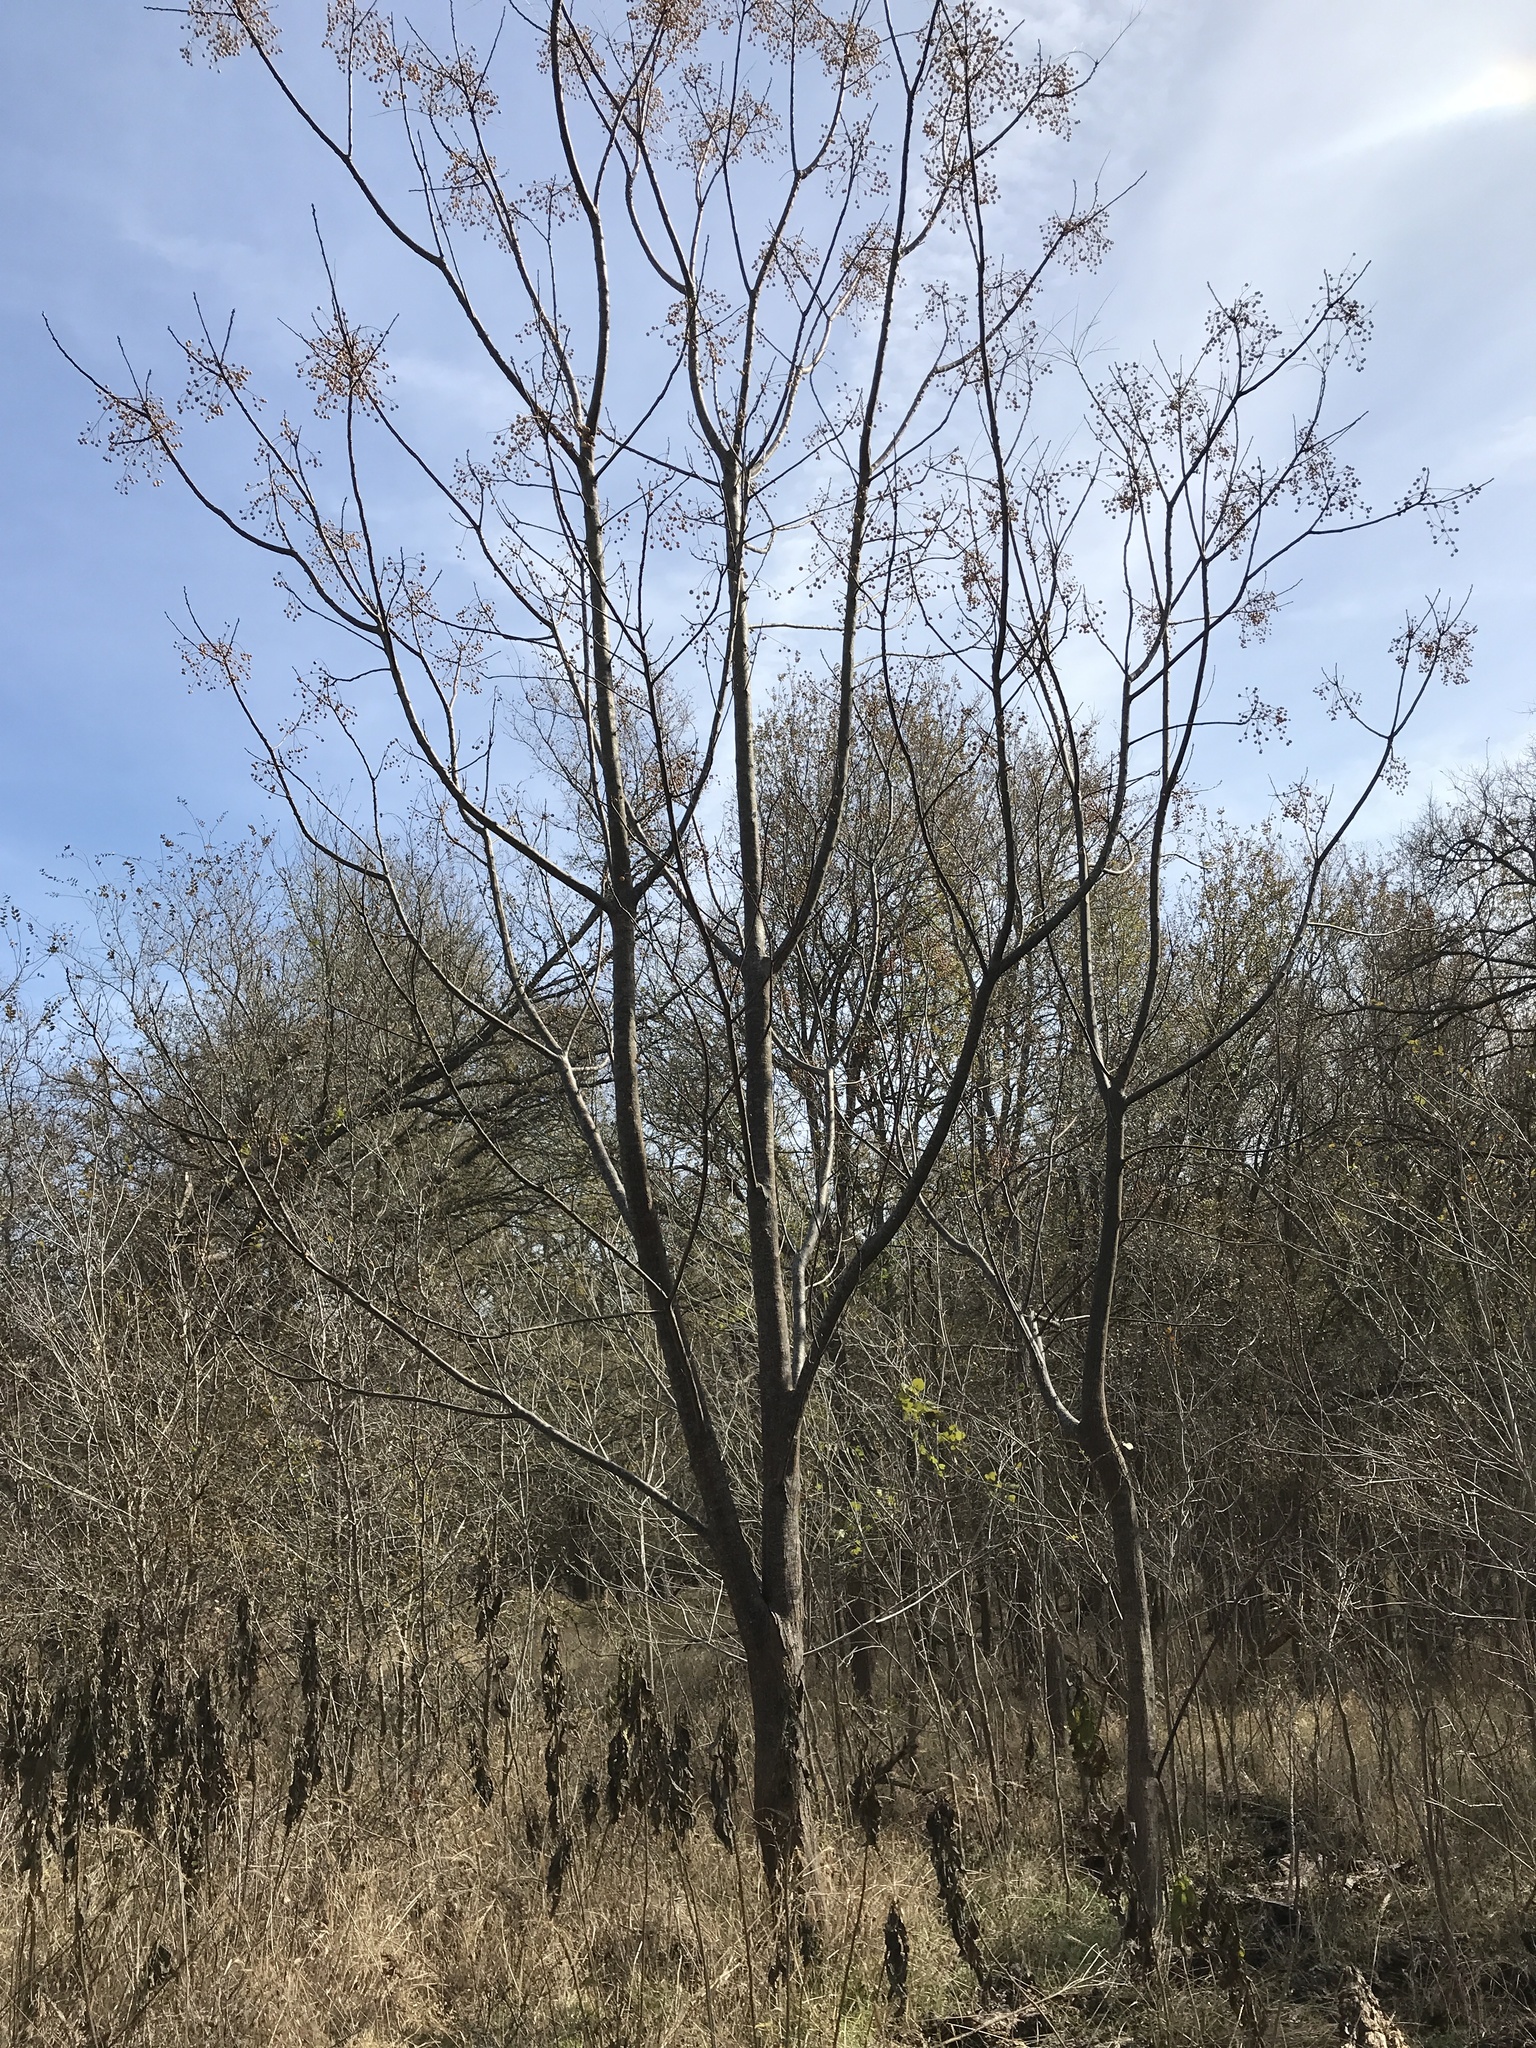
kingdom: Plantae
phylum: Tracheophyta
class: Magnoliopsida
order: Sapindales
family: Meliaceae
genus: Melia
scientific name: Melia azedarach
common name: Chinaberrytree
